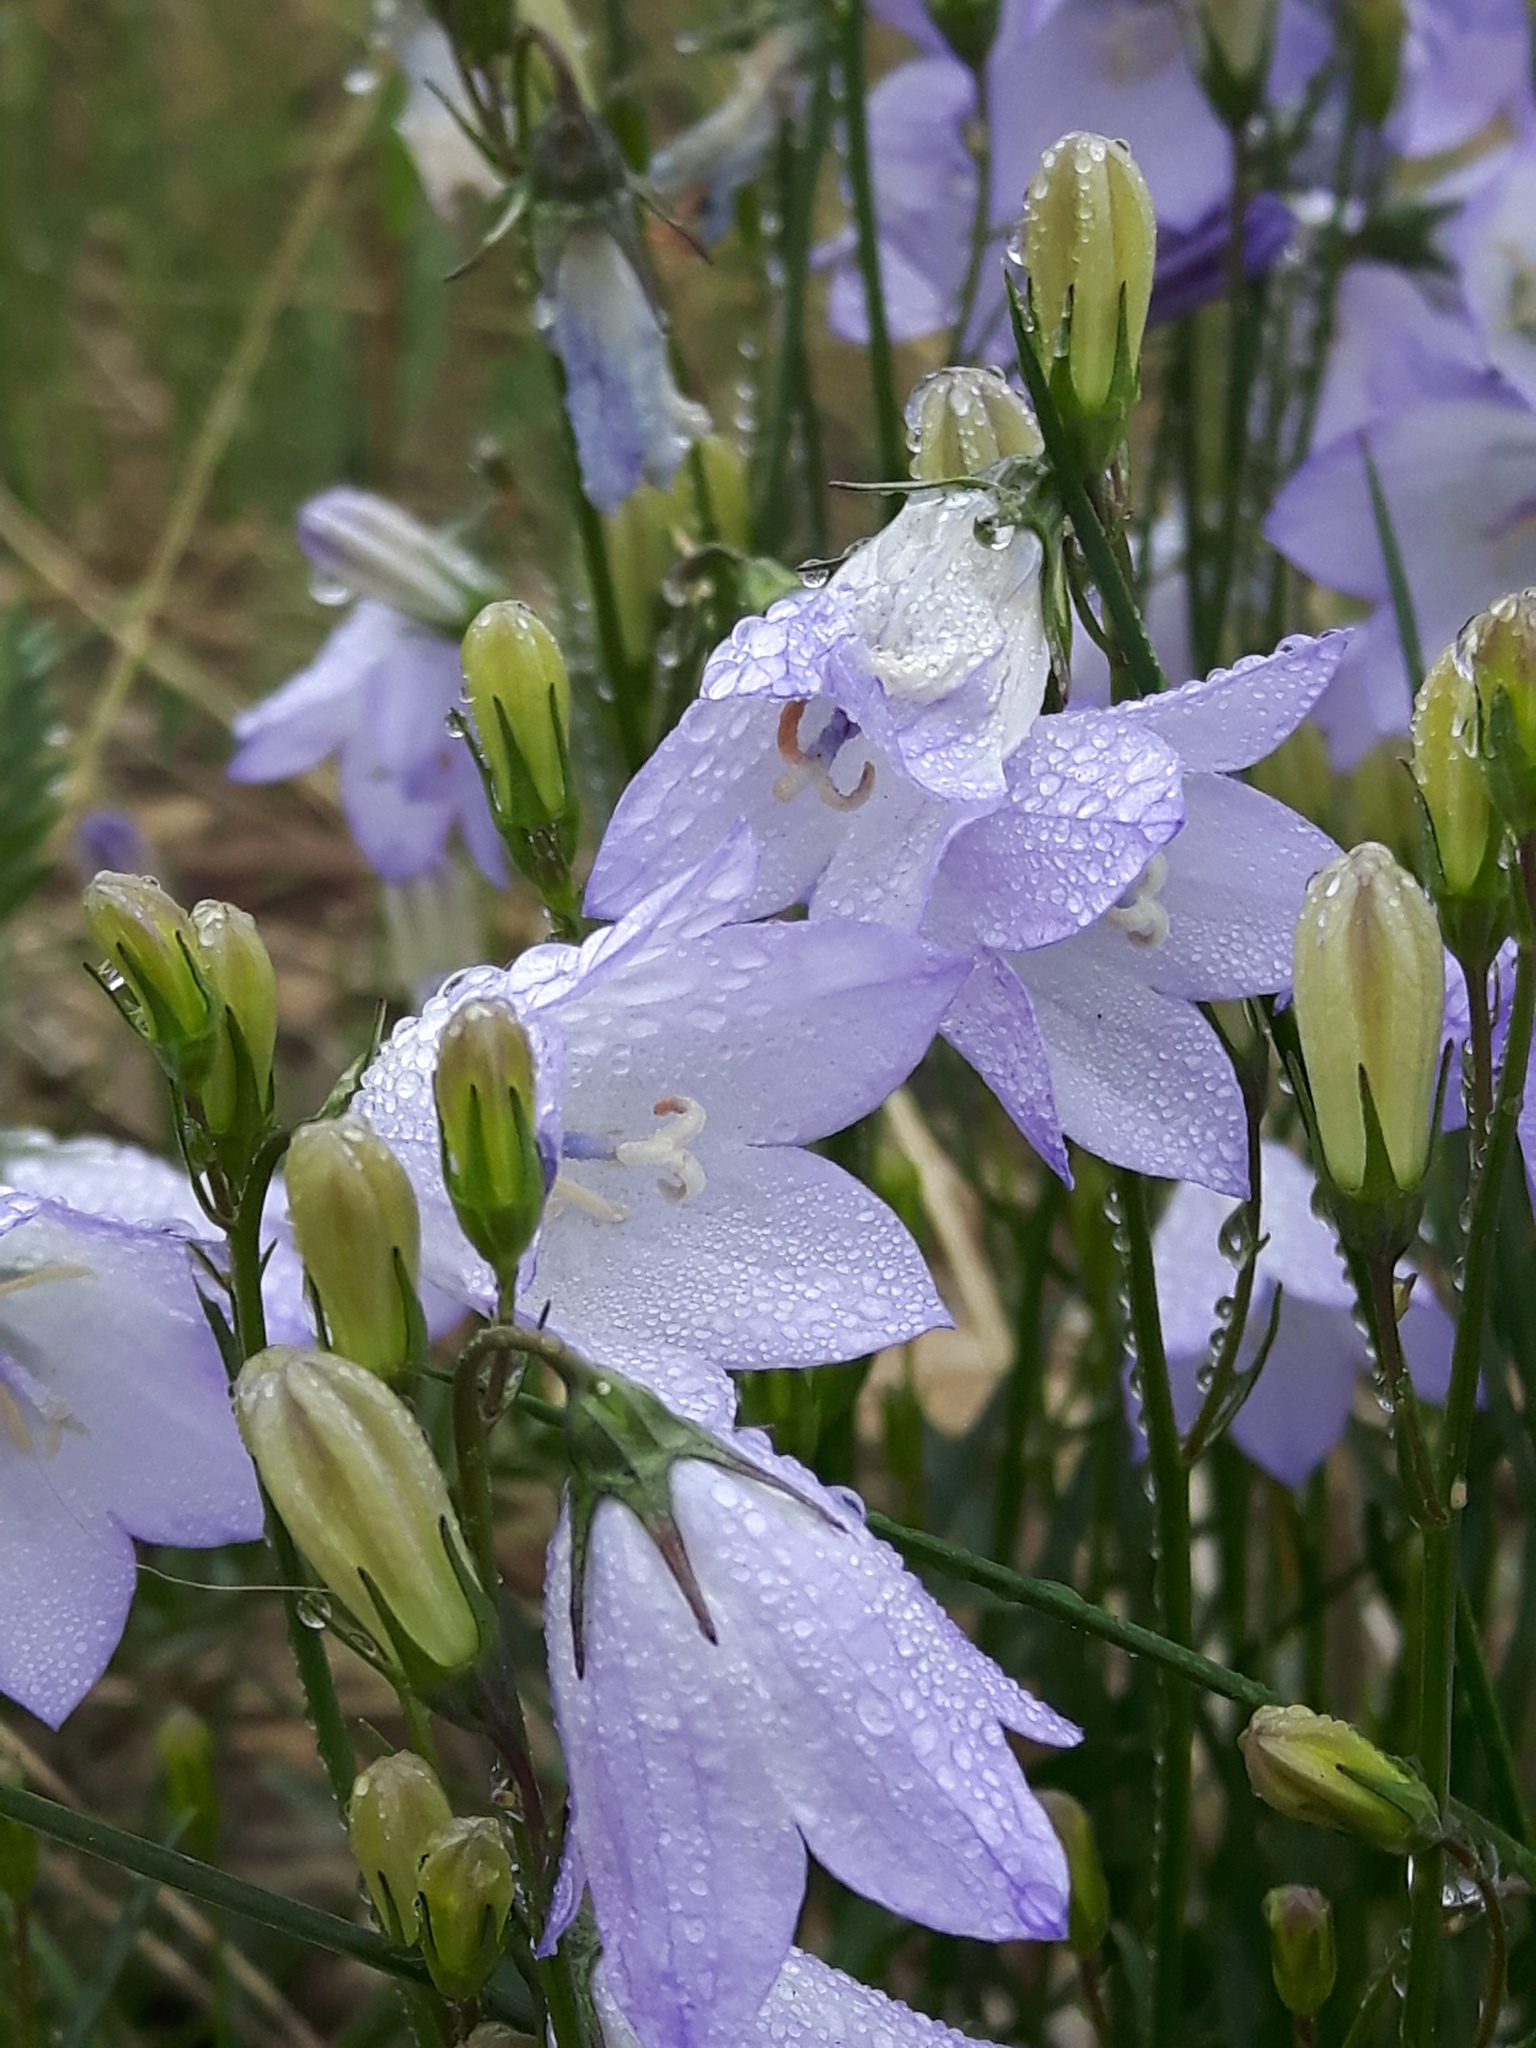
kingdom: Plantae
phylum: Tracheophyta
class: Magnoliopsida
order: Asterales
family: Campanulaceae
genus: Campanula
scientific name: Campanula alaskana
